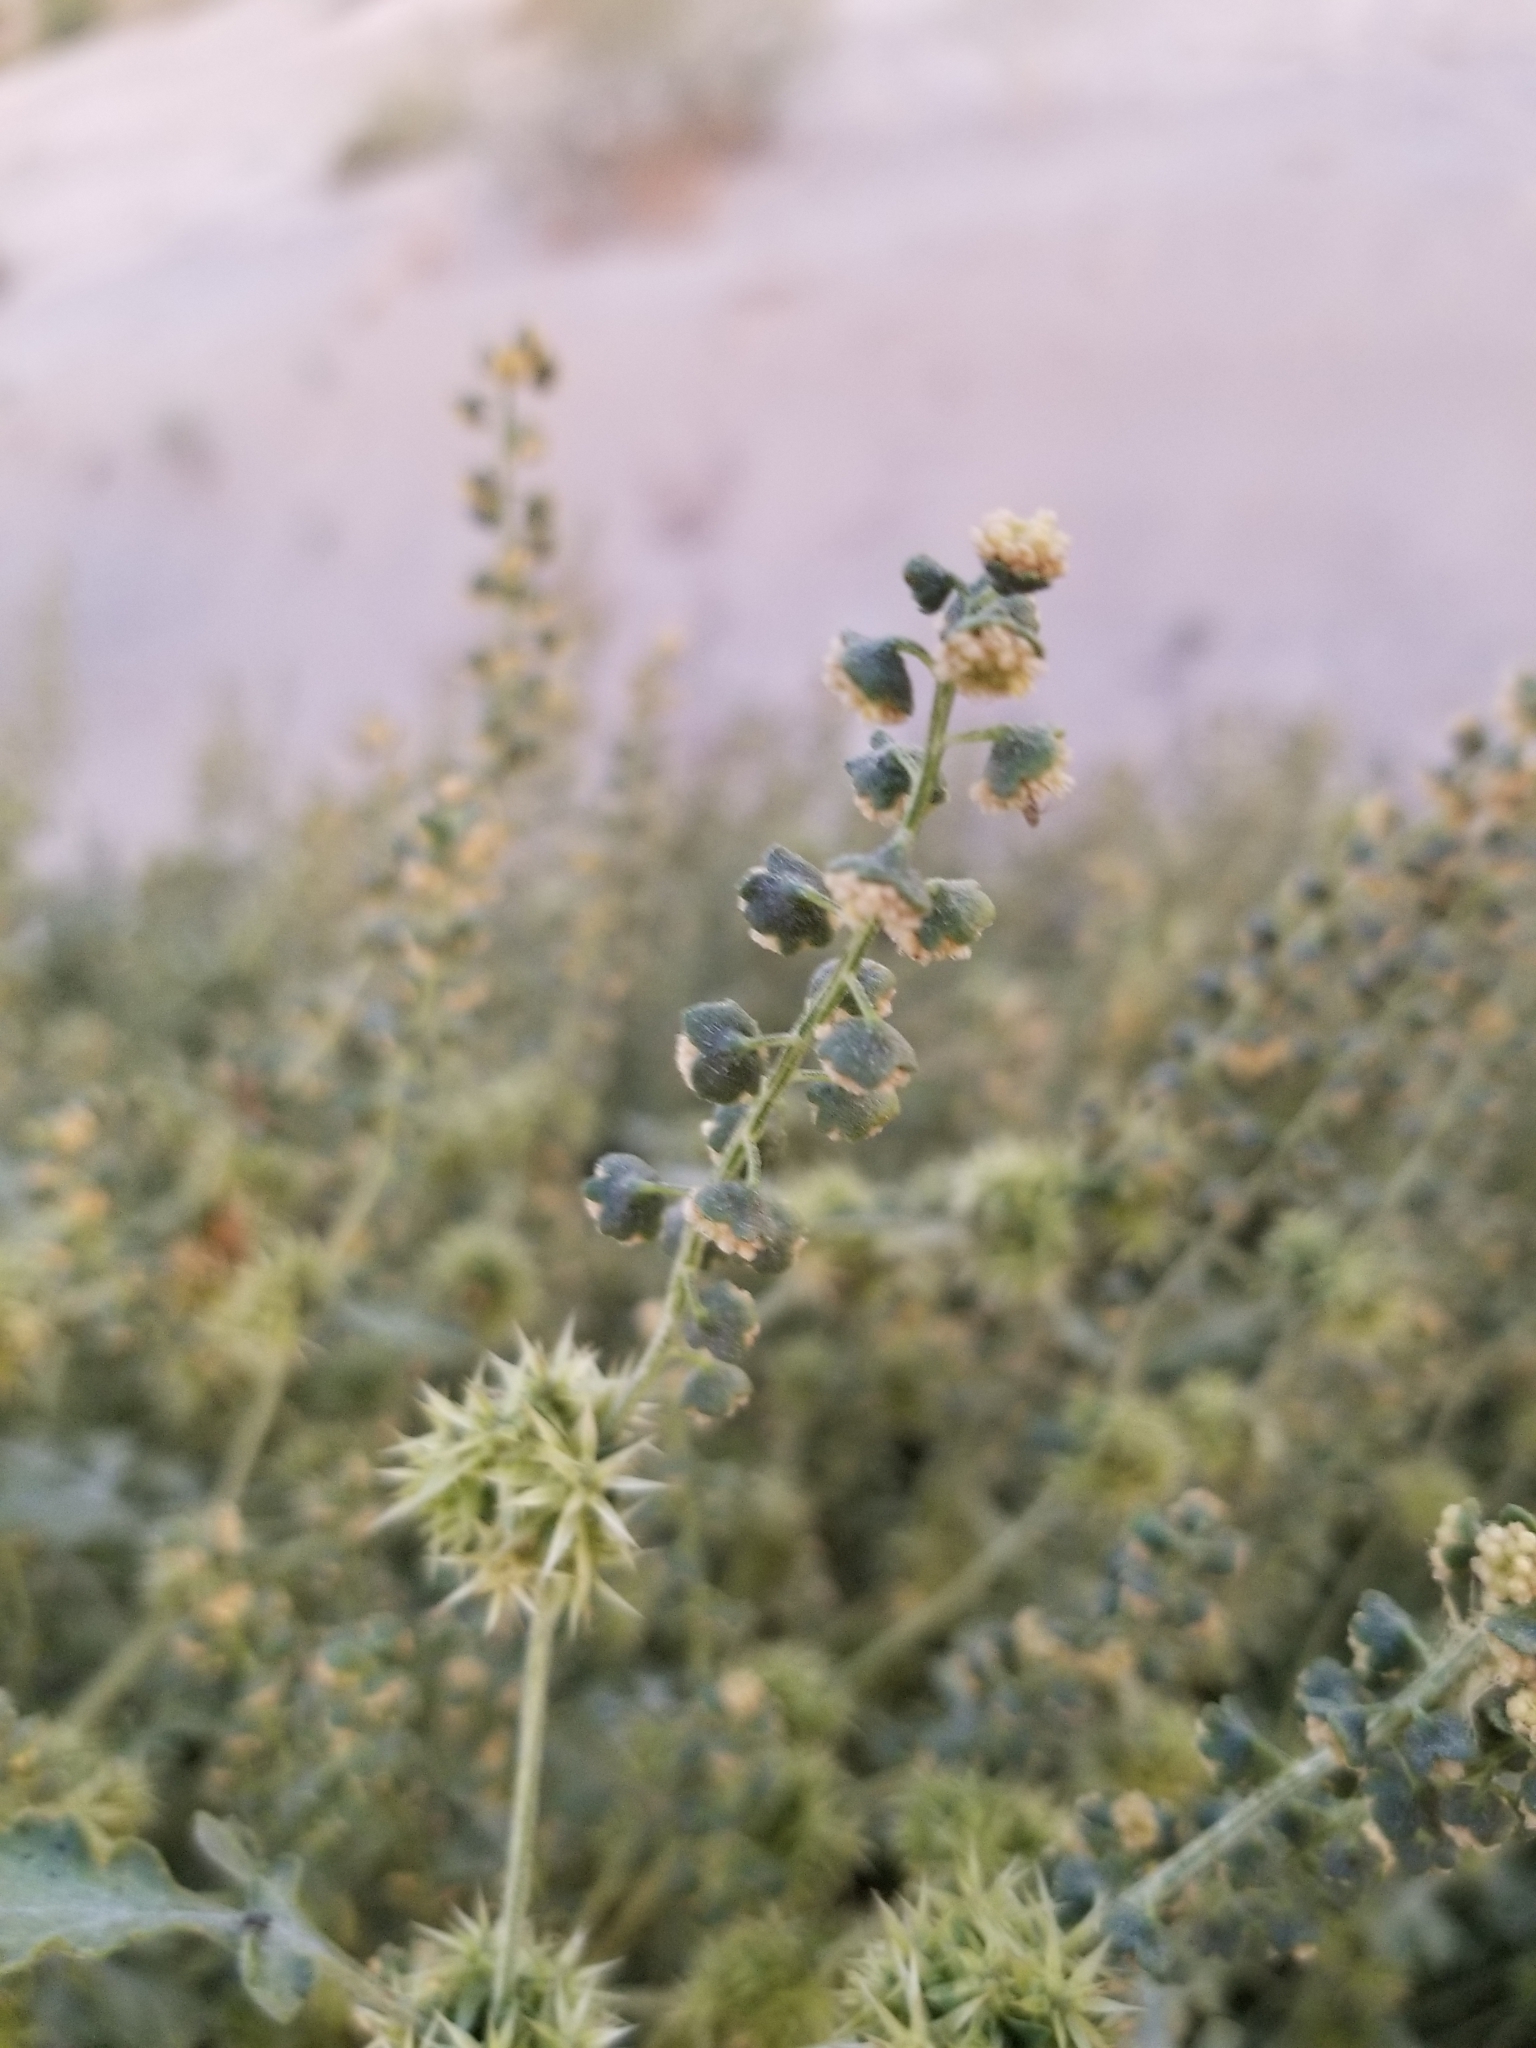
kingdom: Plantae
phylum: Tracheophyta
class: Magnoliopsida
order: Asterales
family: Asteraceae
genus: Ambrosia
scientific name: Ambrosia dumosa
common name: Bur-sage
